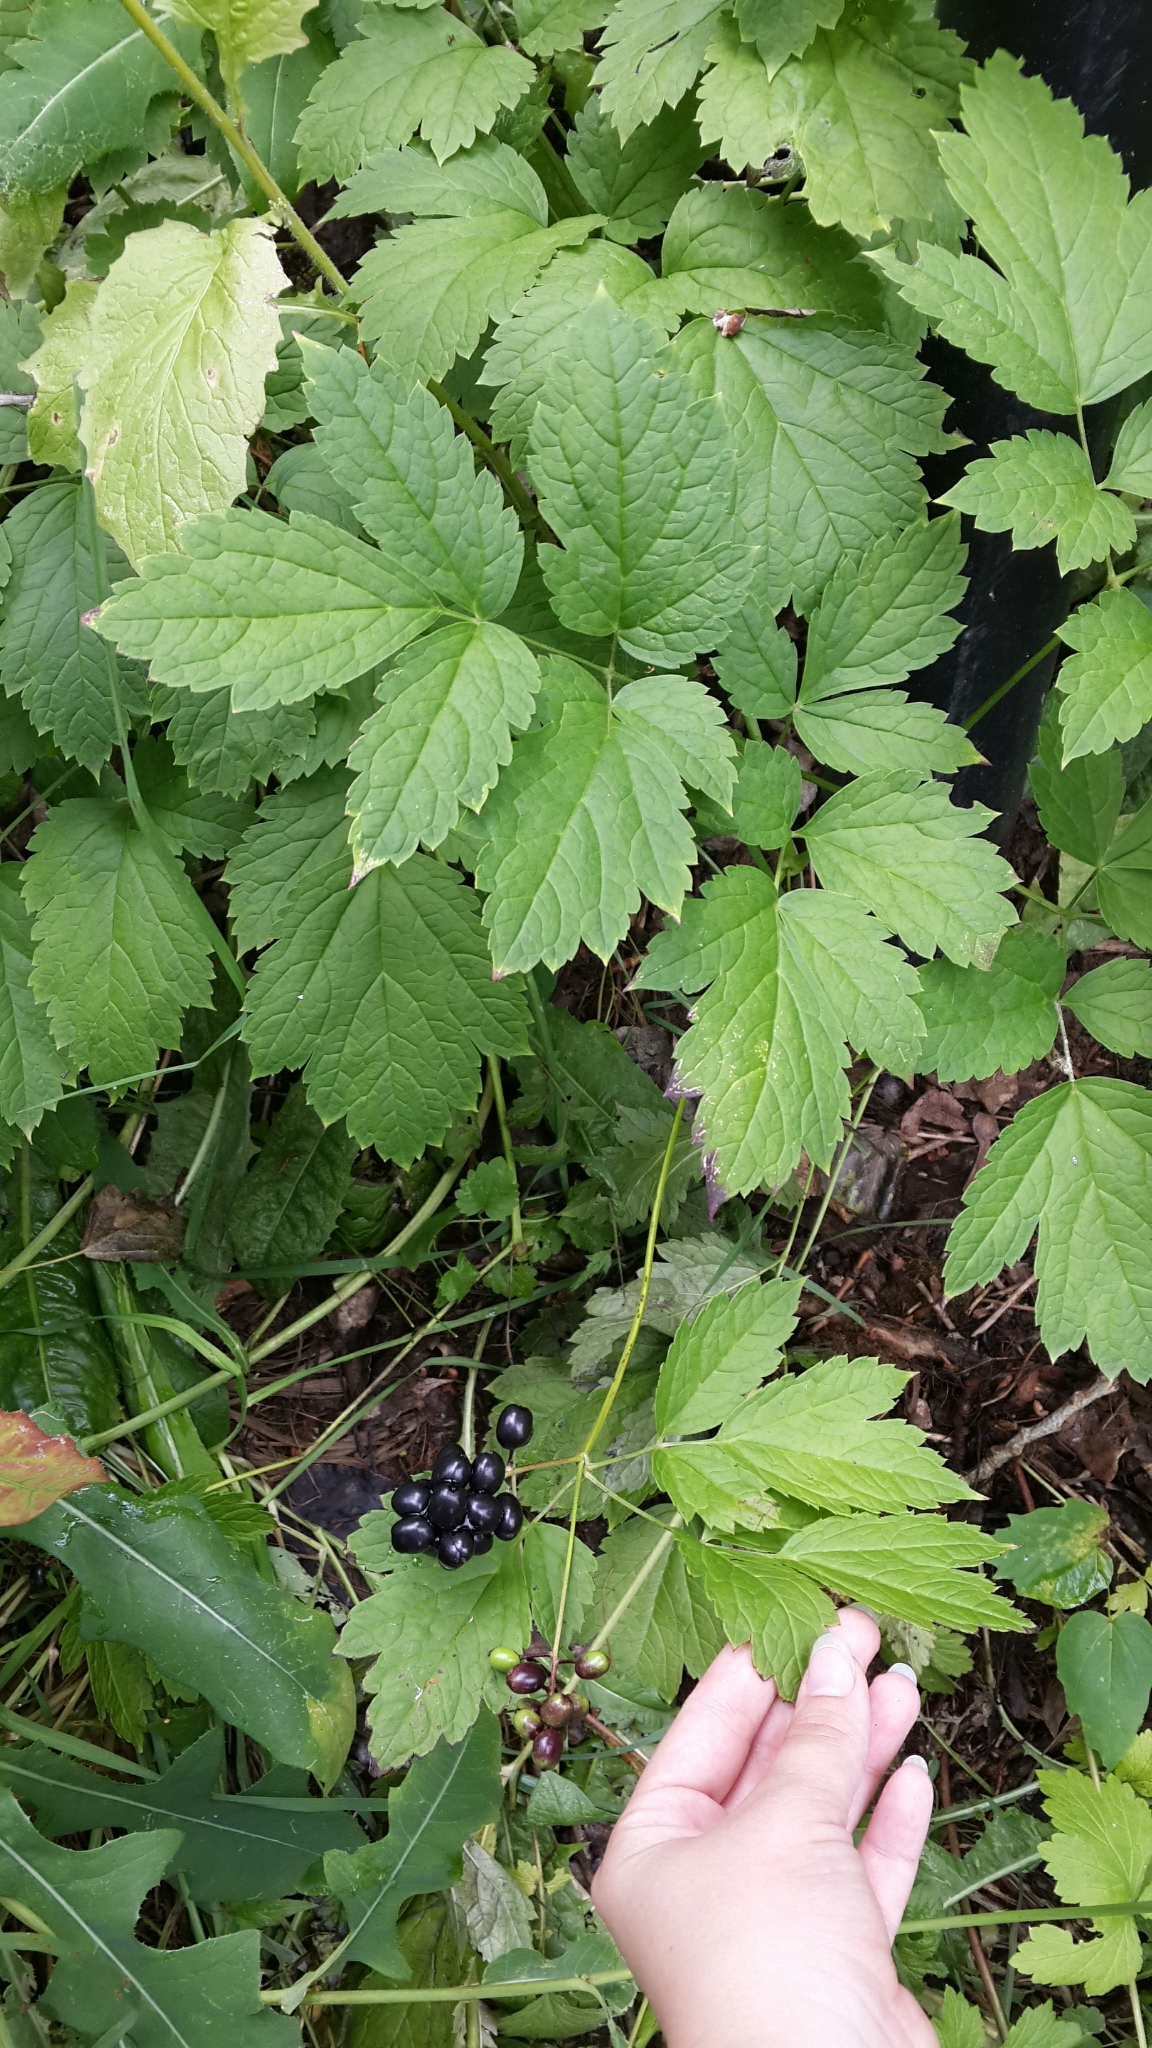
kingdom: Plantae
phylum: Tracheophyta
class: Magnoliopsida
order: Ranunculales
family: Ranunculaceae
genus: Actaea
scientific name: Actaea spicata
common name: Baneberry
